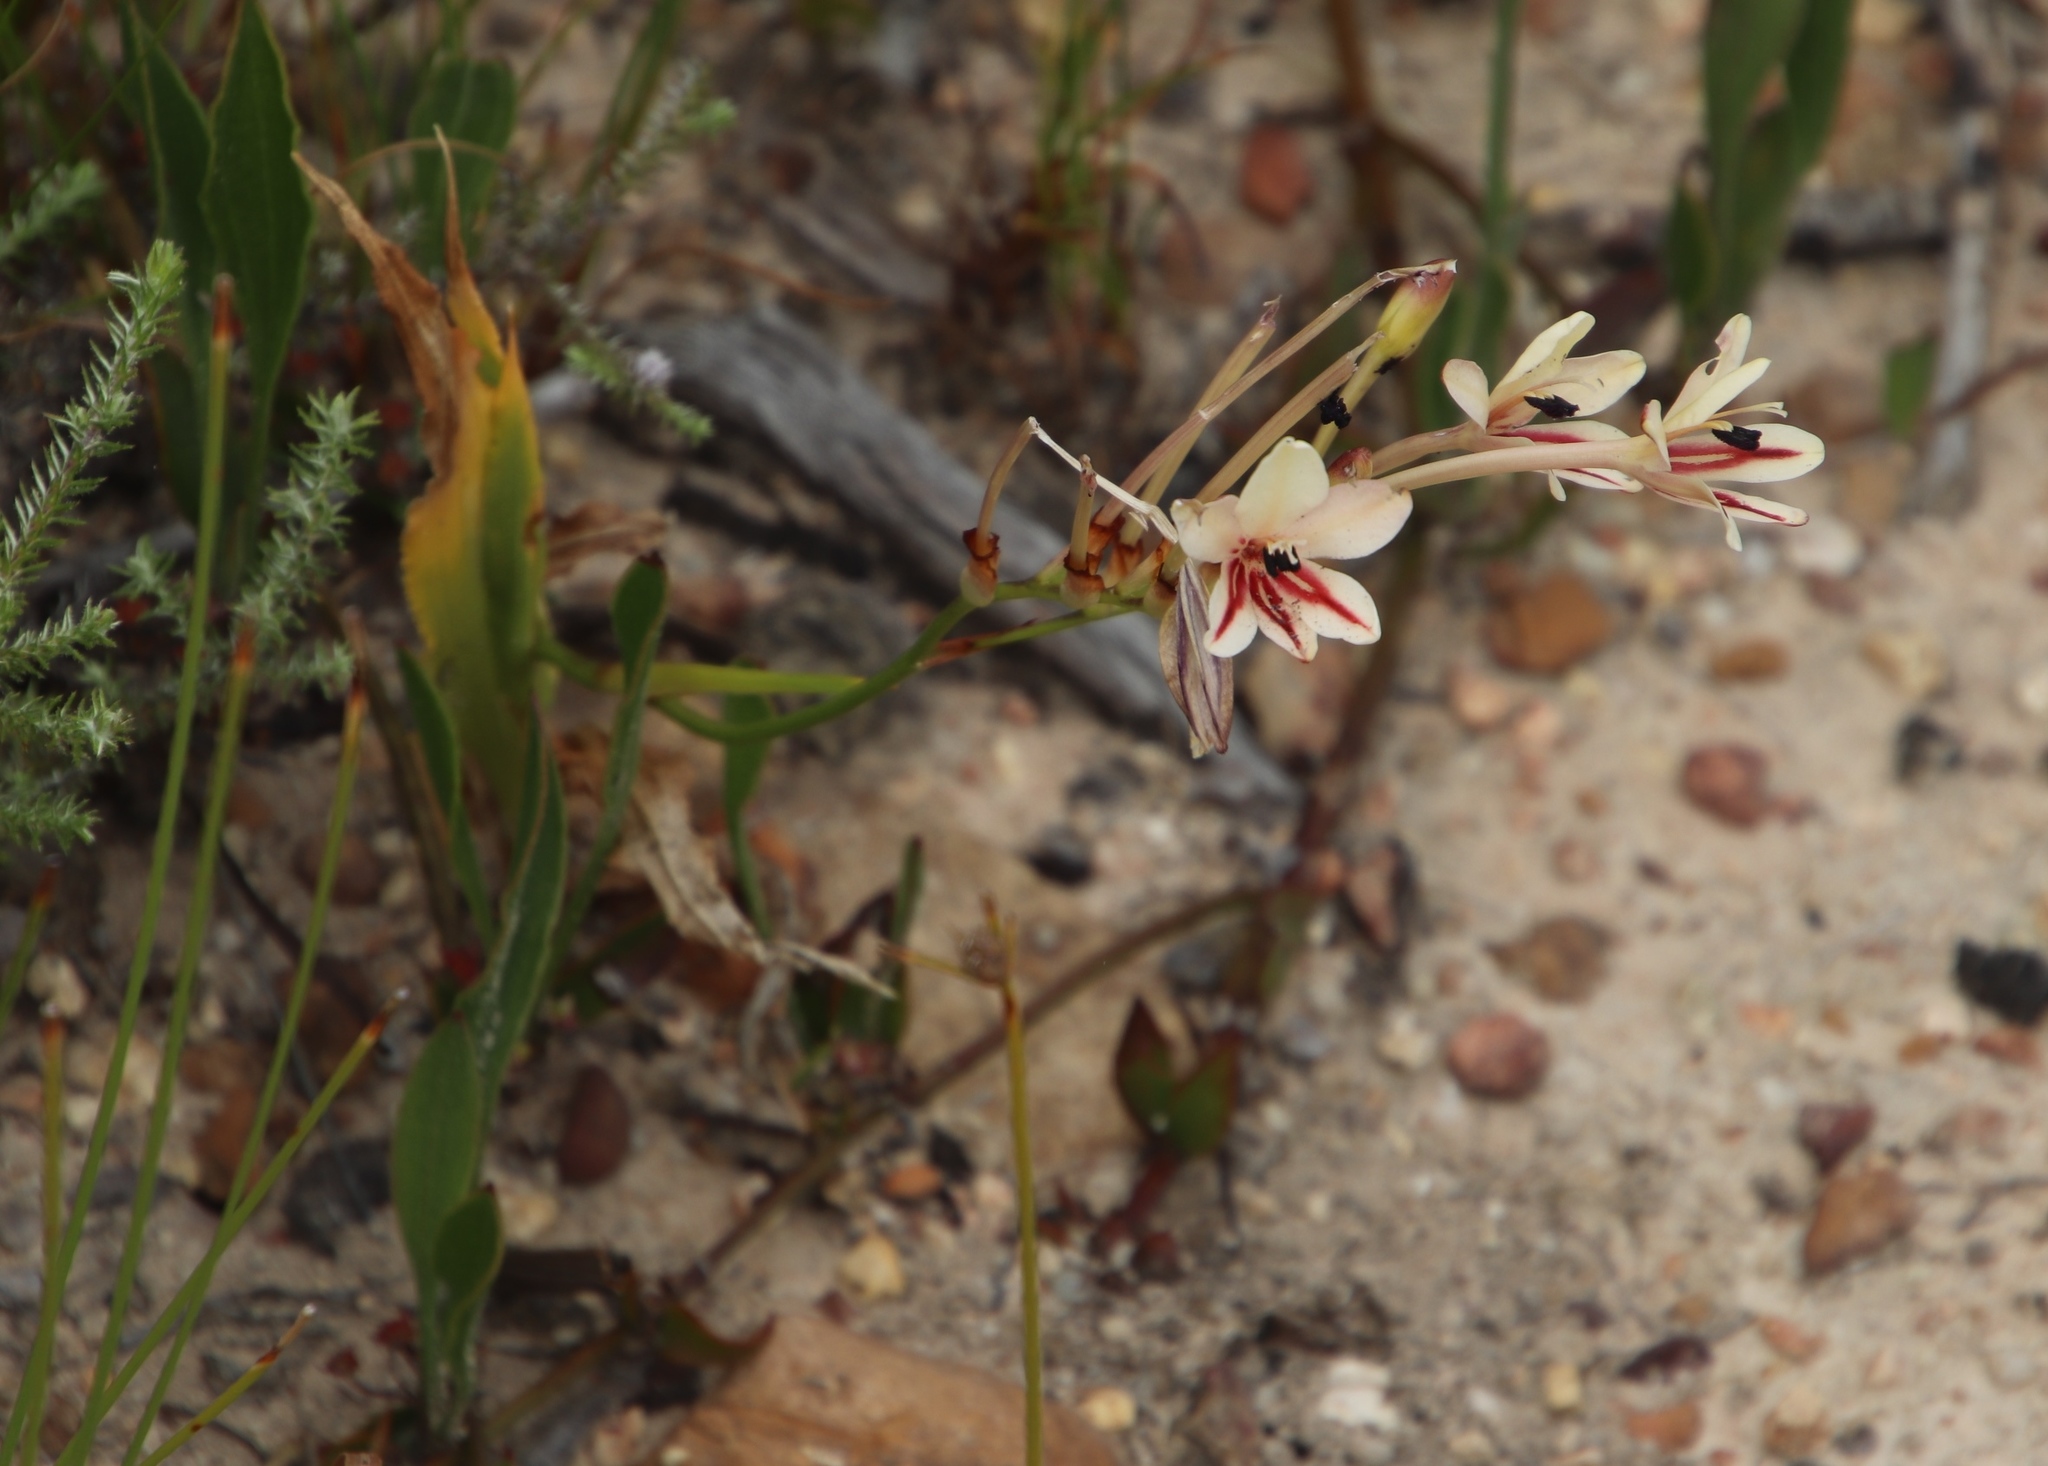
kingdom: Plantae
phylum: Tracheophyta
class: Liliopsida
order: Asparagales
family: Iridaceae
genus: Tritonia
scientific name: Tritonia undulata
